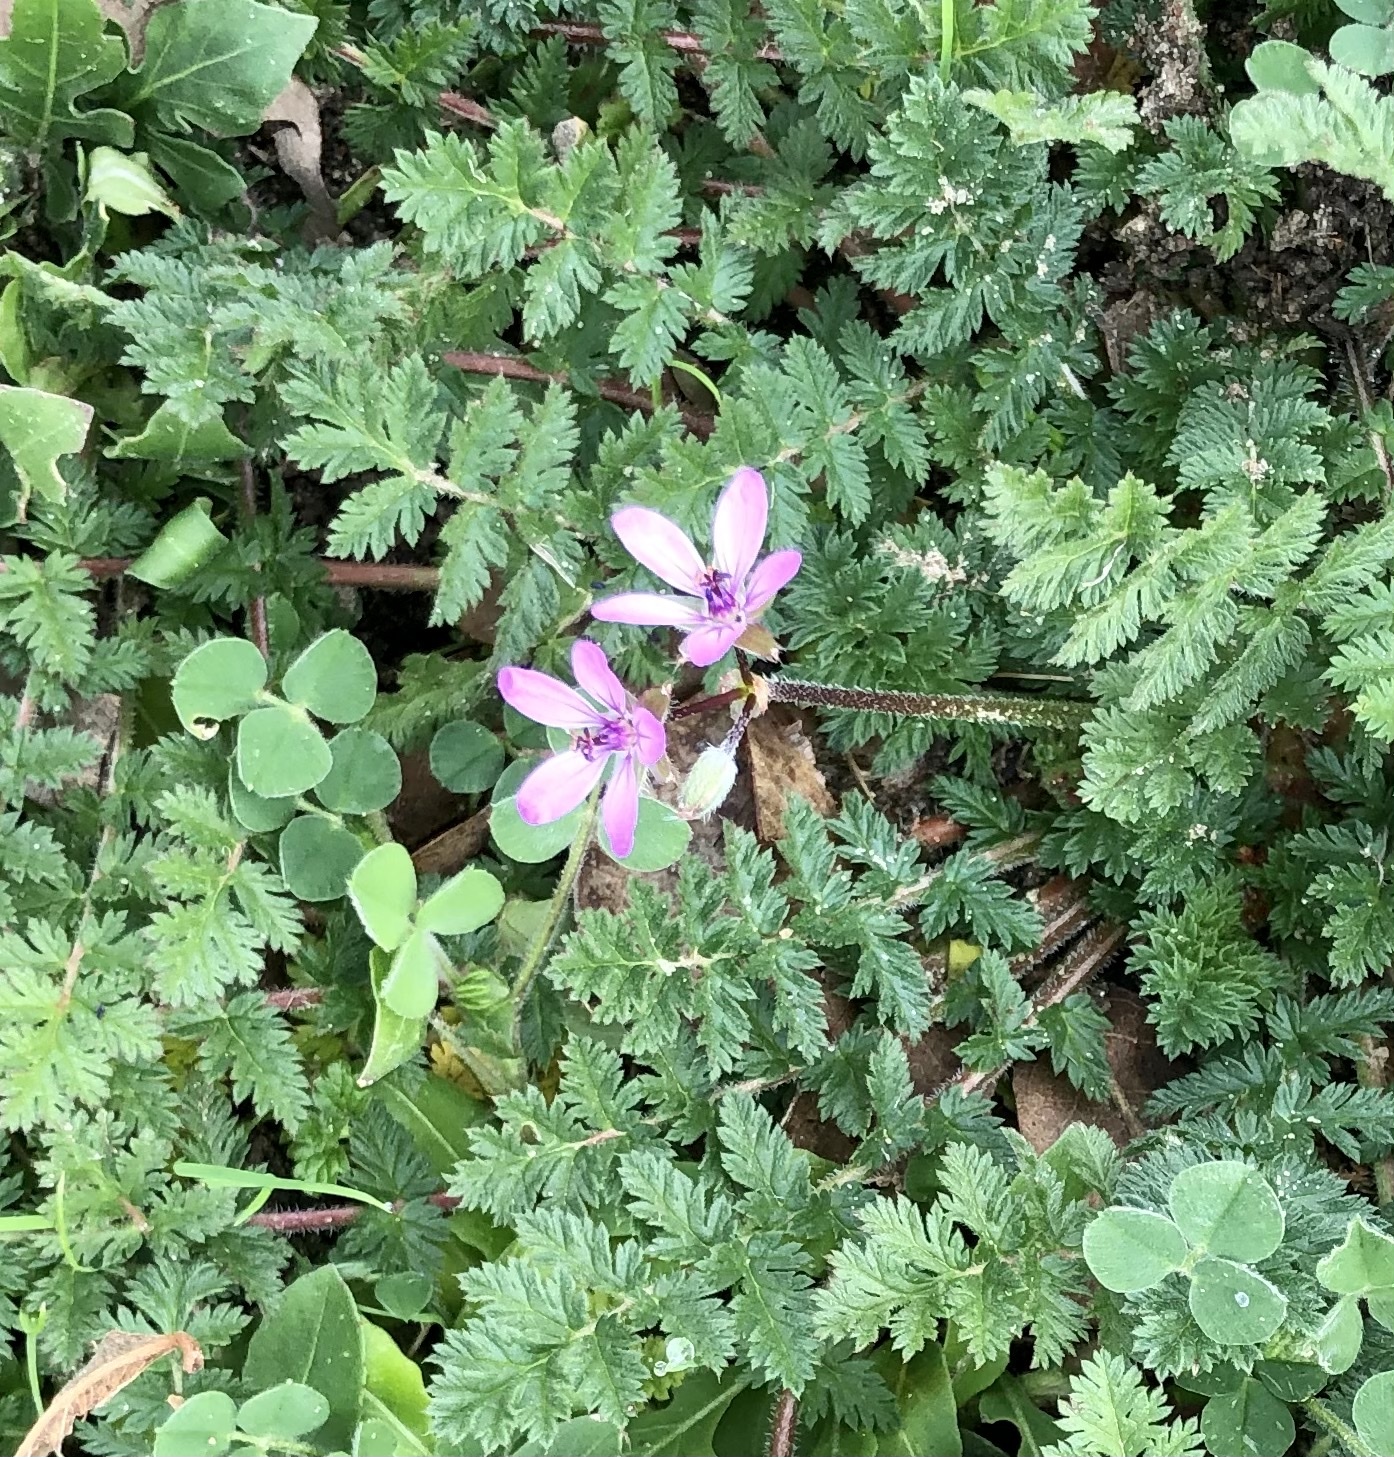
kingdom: Plantae
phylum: Tracheophyta
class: Magnoliopsida
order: Geraniales
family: Geraniaceae
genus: Erodium
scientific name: Erodium cicutarium
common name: Common stork's-bill
